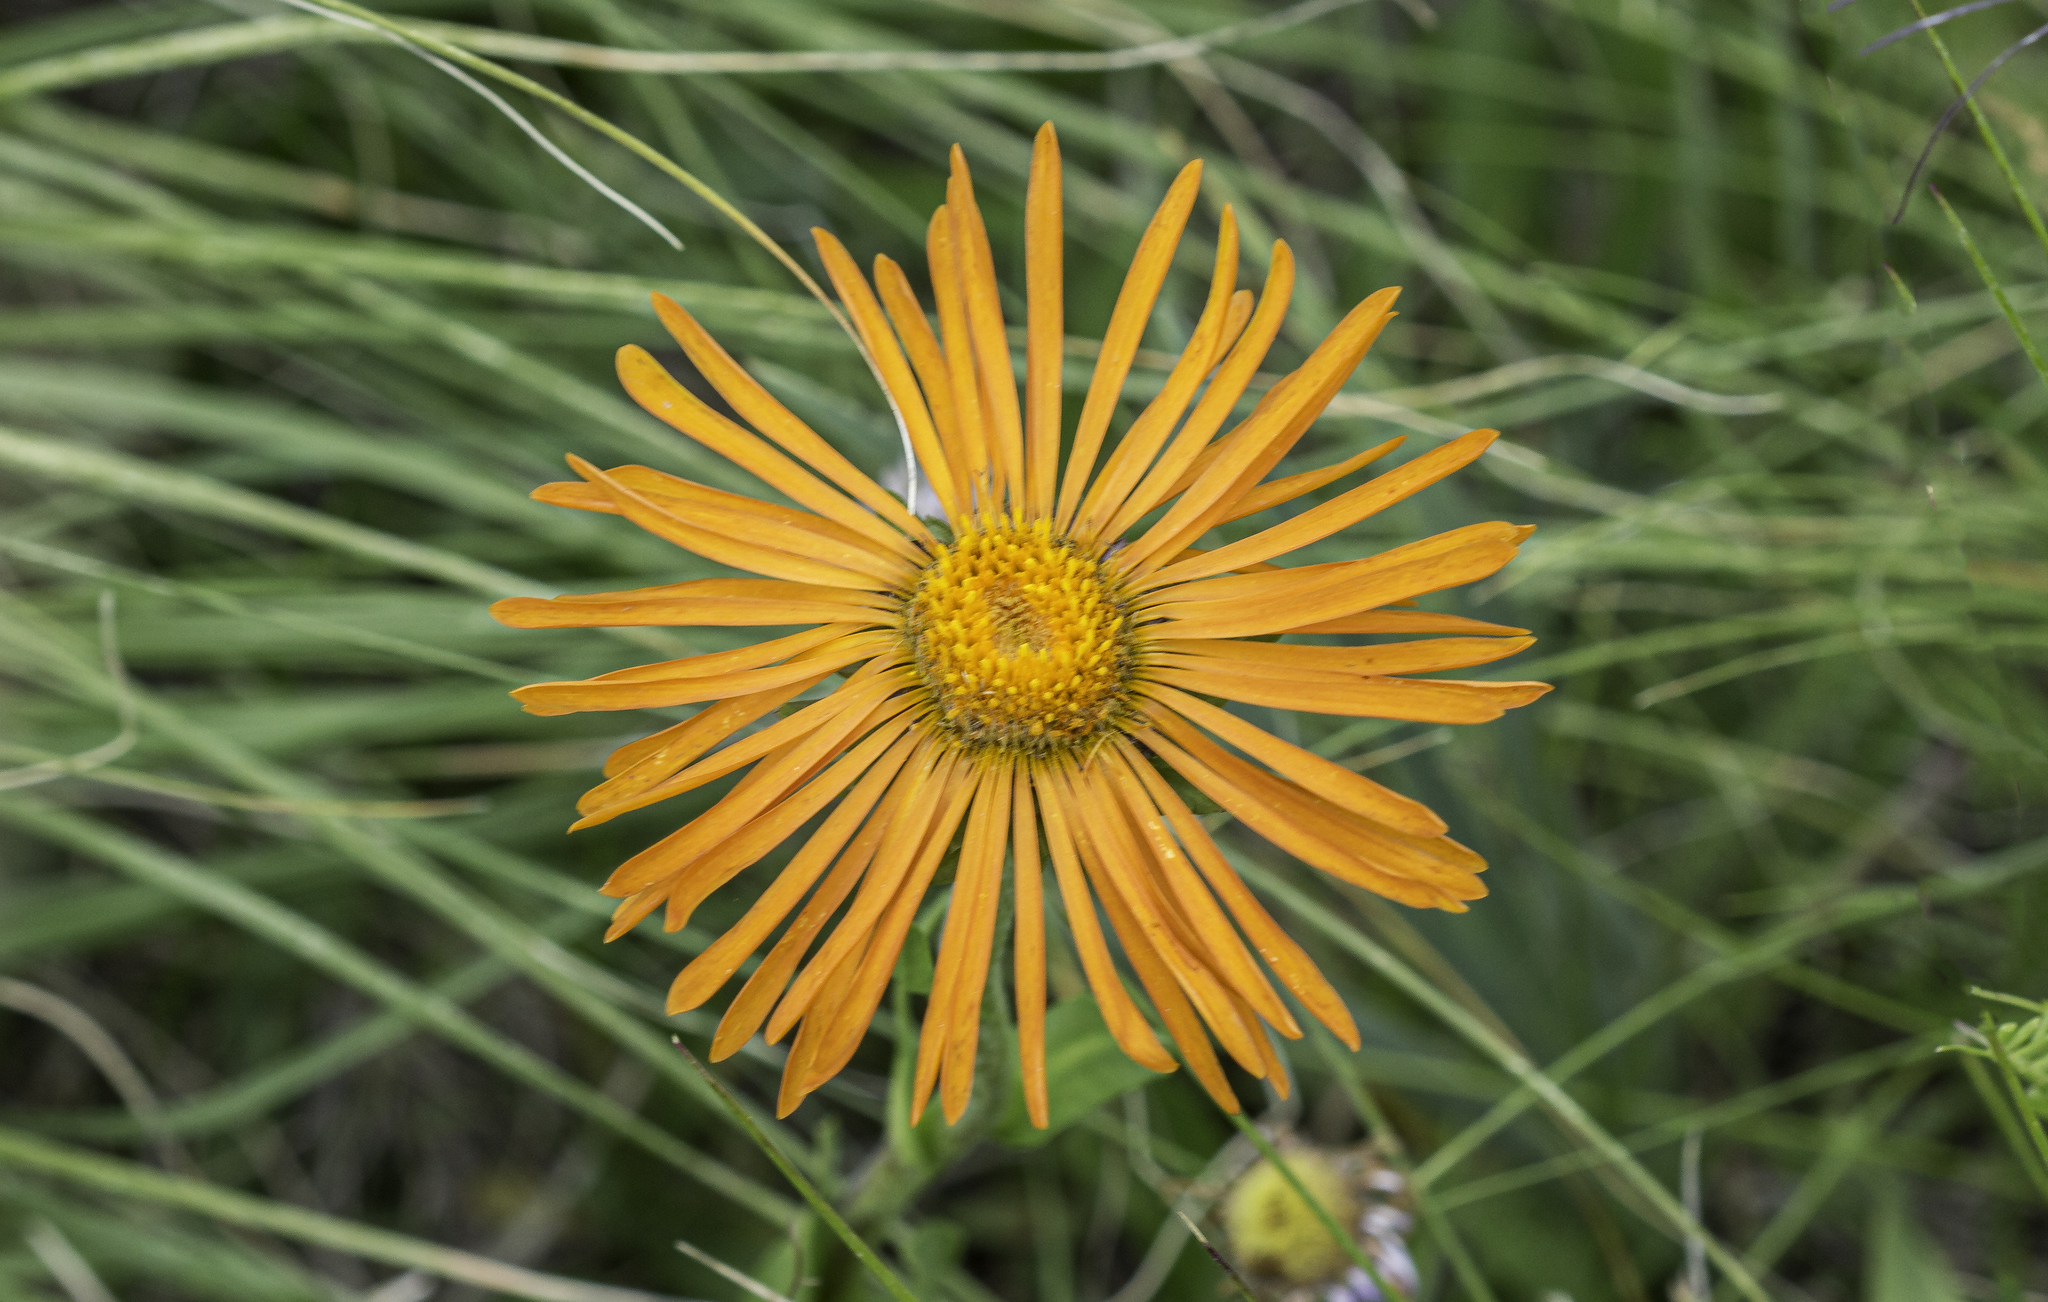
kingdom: Plantae
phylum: Tracheophyta
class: Magnoliopsida
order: Asterales
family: Asteraceae
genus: Pyrrocoma
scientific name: Pyrrocoma crocea
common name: Curly-head goldenweed
